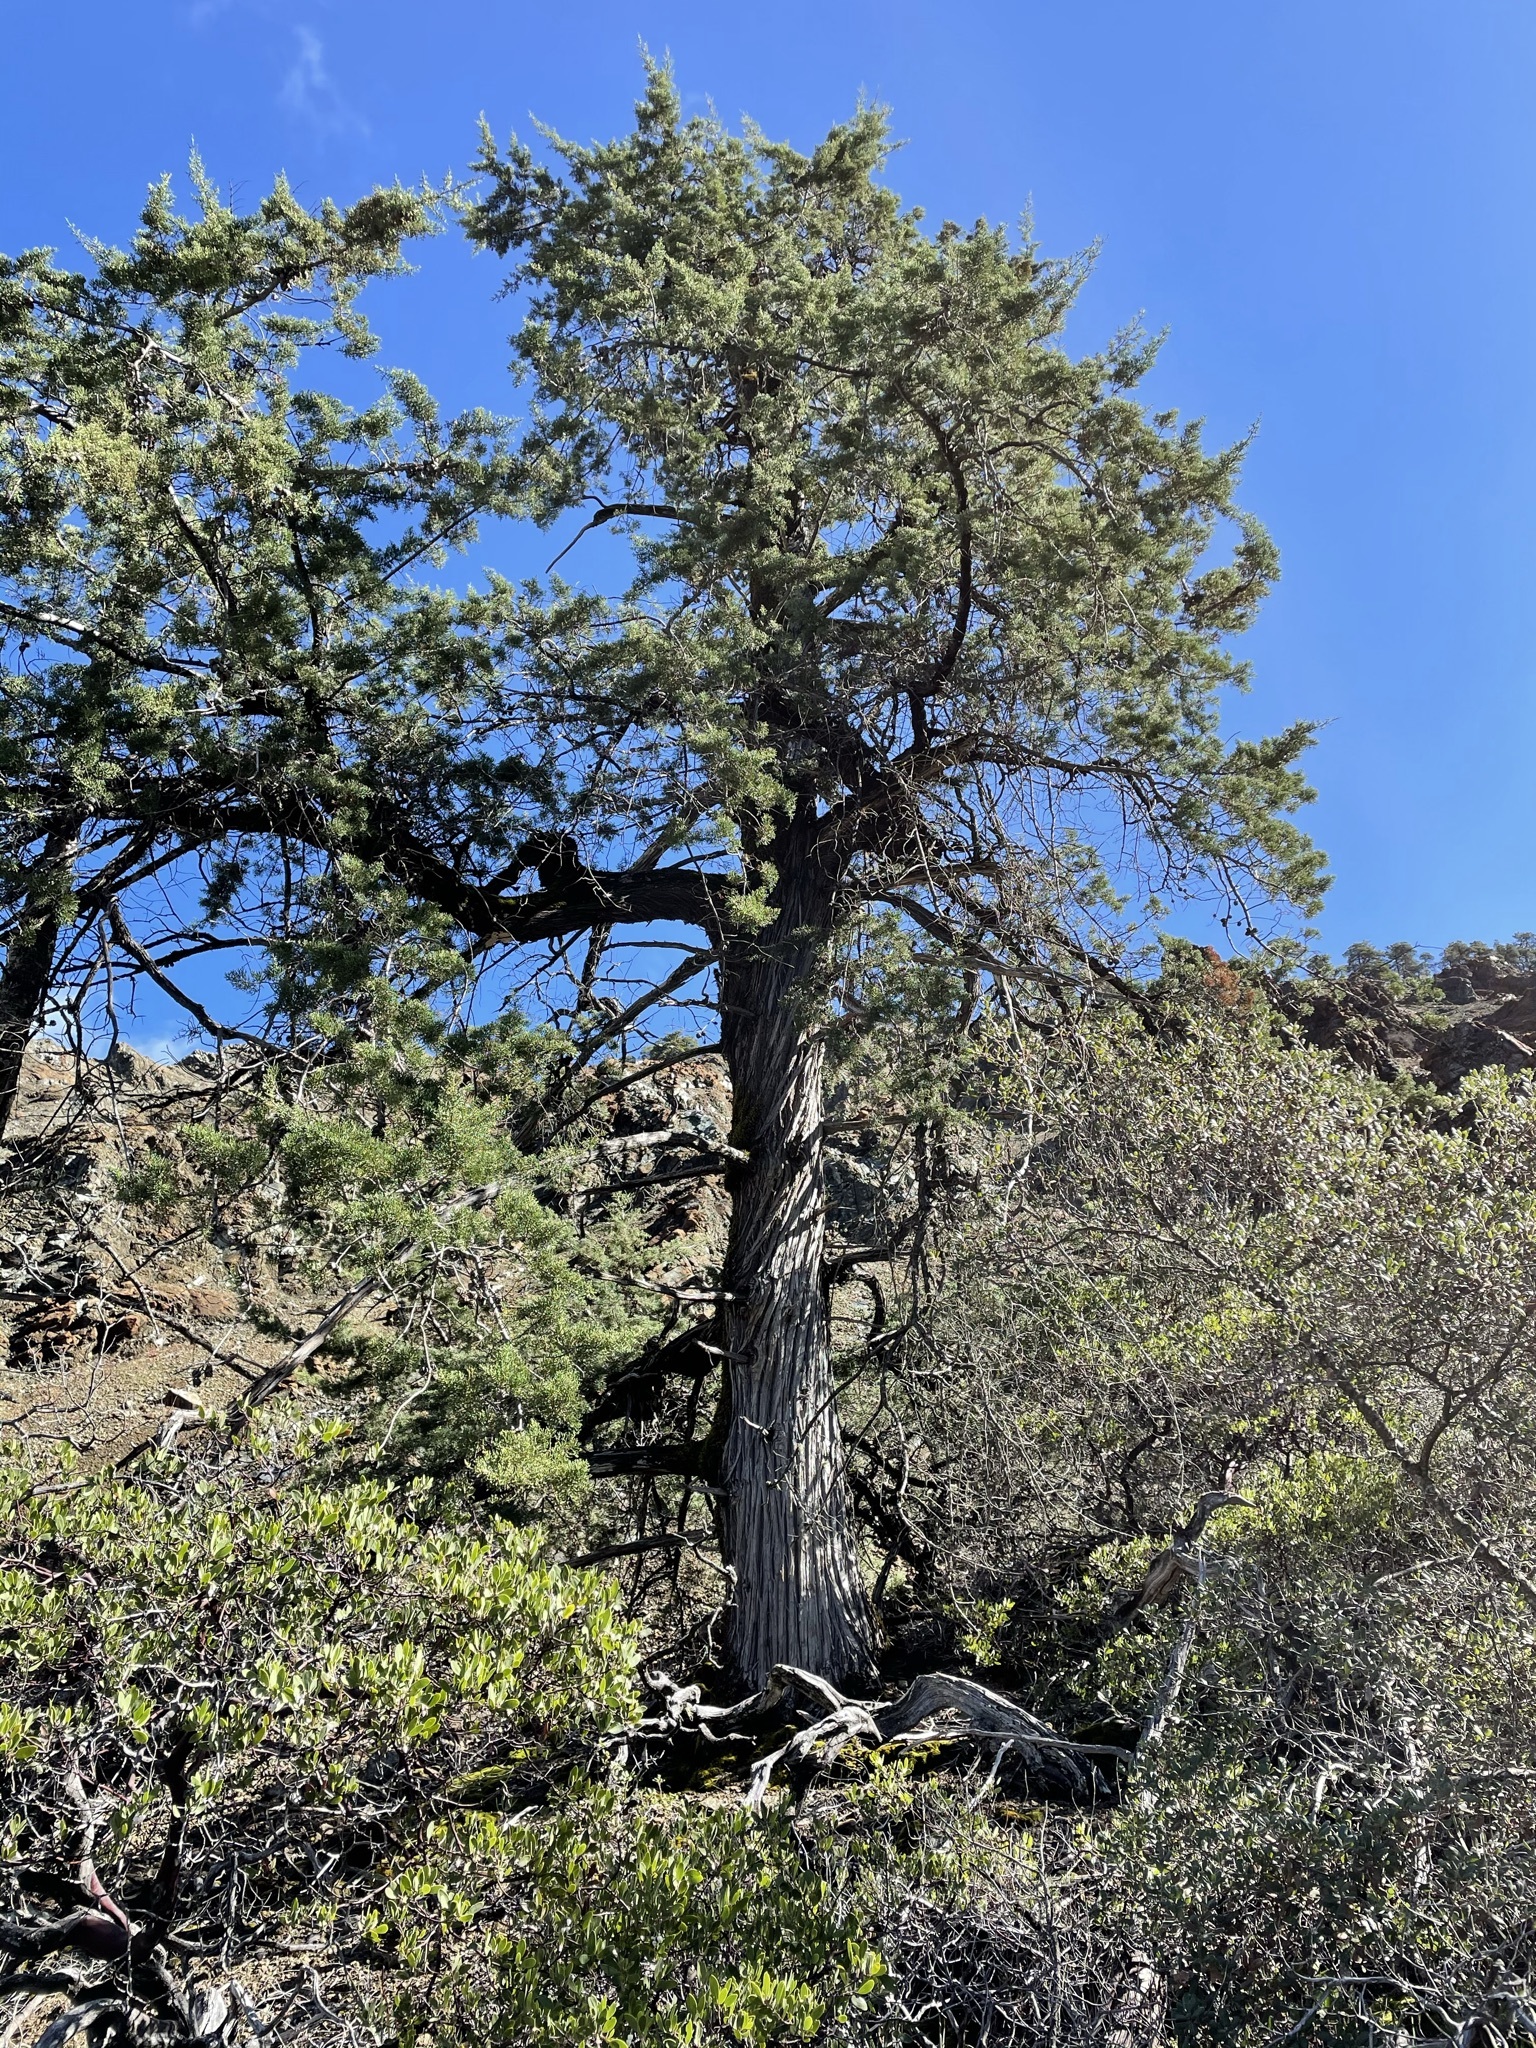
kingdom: Plantae
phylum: Tracheophyta
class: Pinopsida
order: Pinales
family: Cupressaceae
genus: Cupressus
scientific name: Cupressus sargentii
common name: Sargent cypress
